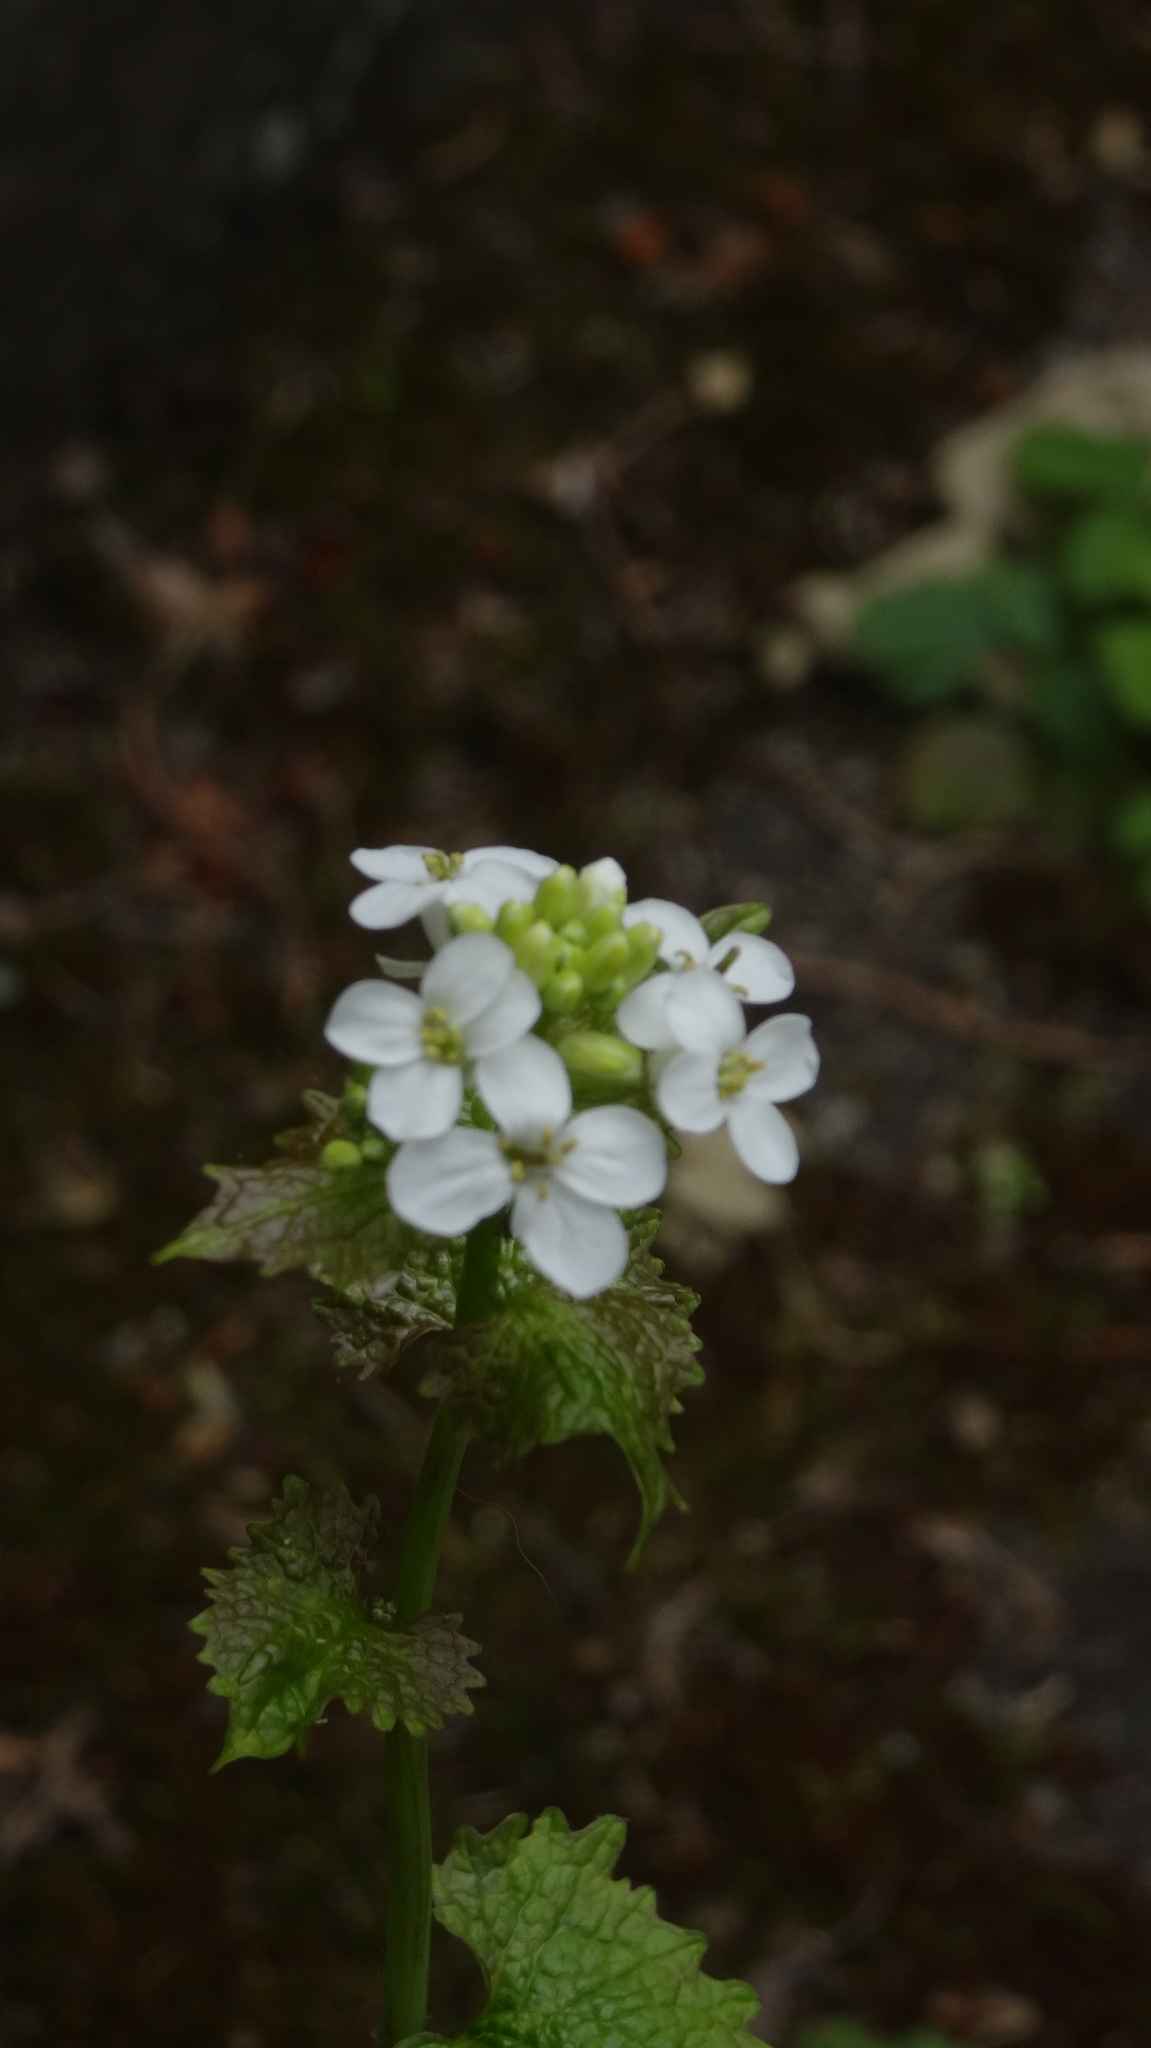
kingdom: Plantae
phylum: Tracheophyta
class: Magnoliopsida
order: Brassicales
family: Brassicaceae
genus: Alliaria
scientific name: Alliaria petiolata
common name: Garlic mustard
